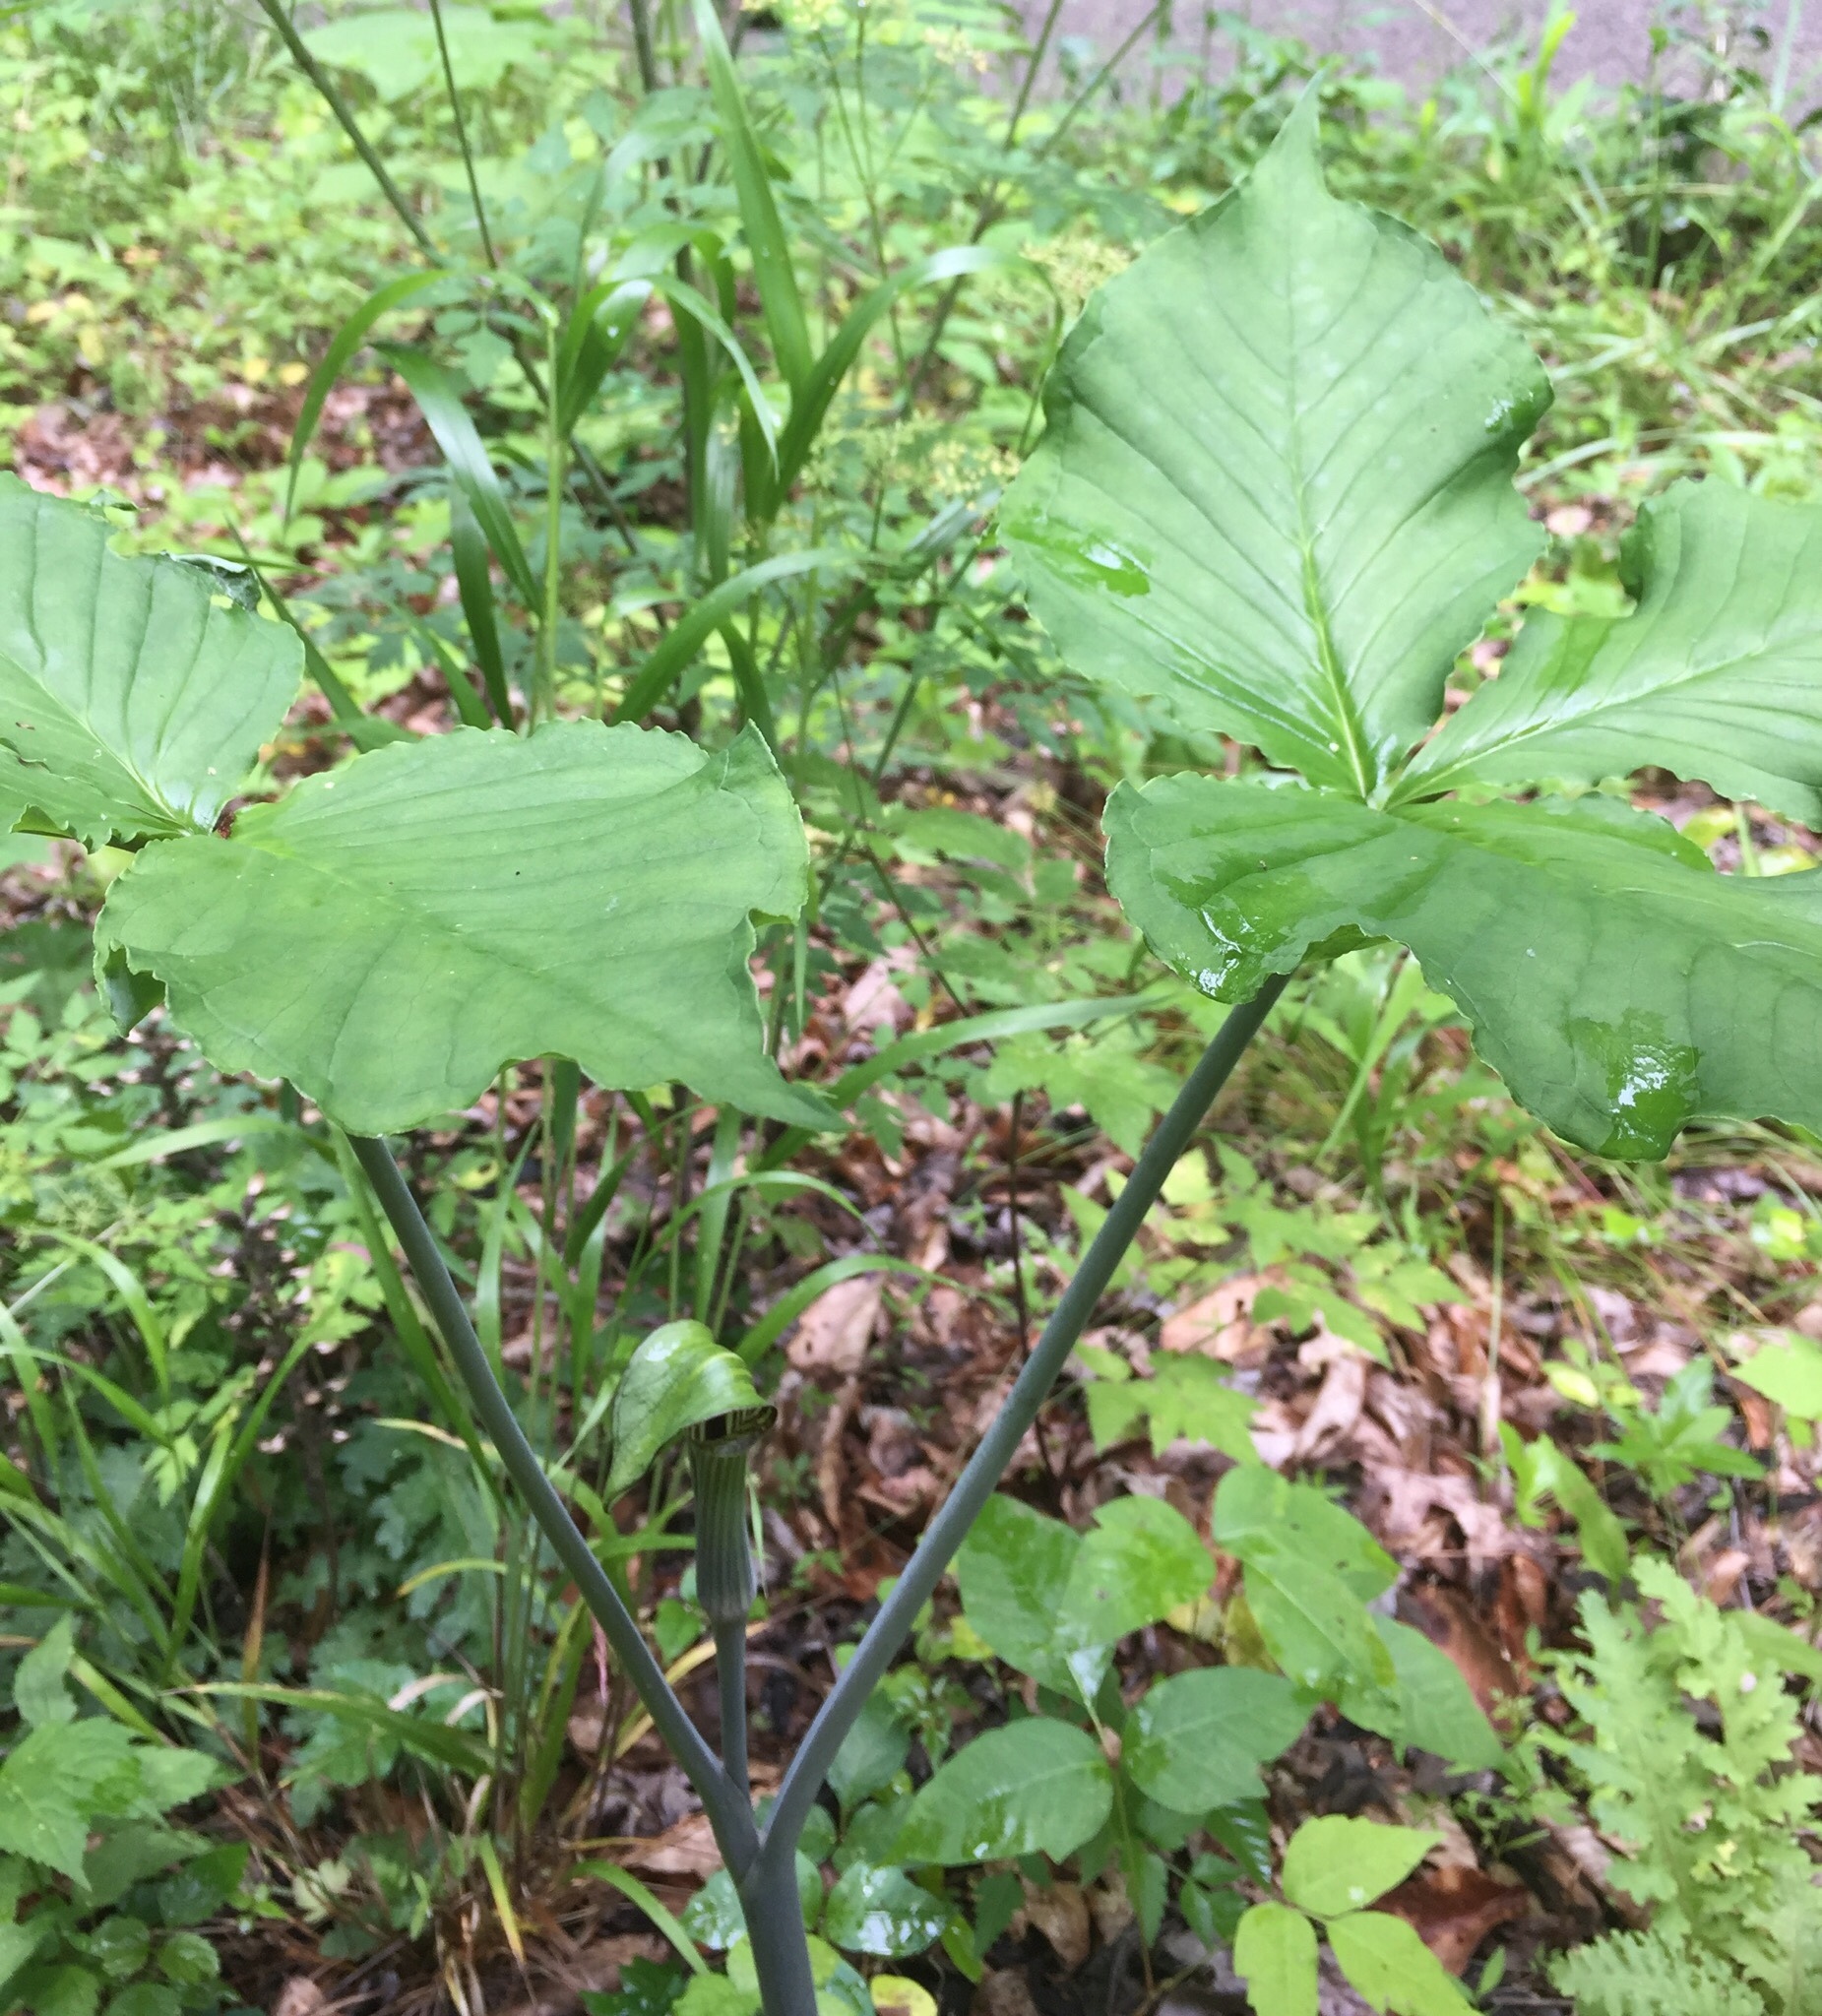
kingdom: Plantae
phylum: Tracheophyta
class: Liliopsida
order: Alismatales
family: Araceae
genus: Arisaema
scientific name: Arisaema triphyllum
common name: Jack-in-the-pulpit
